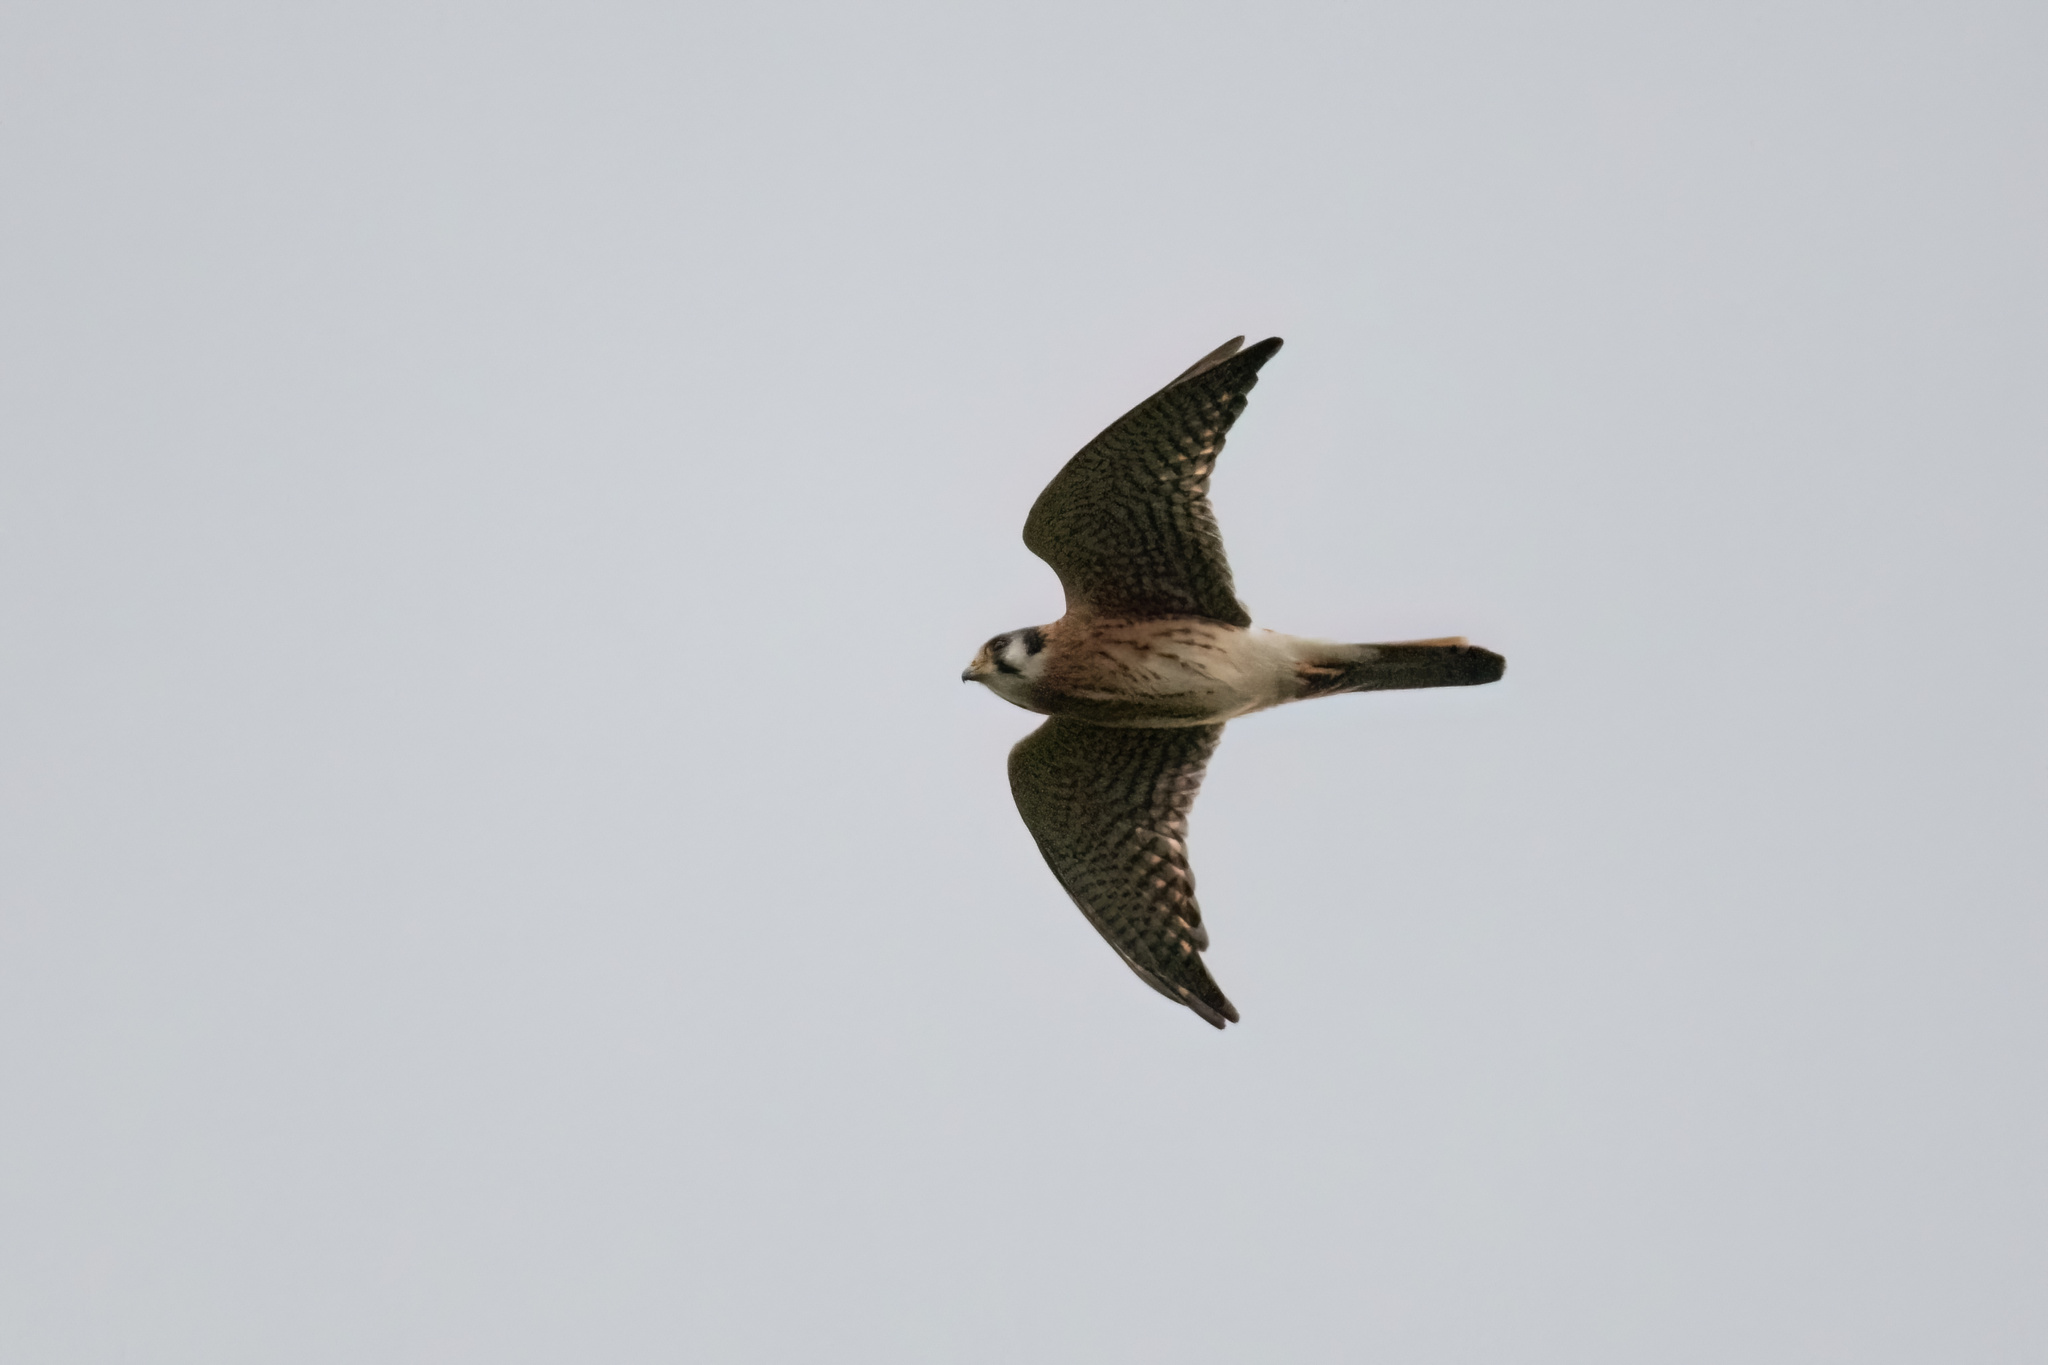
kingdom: Animalia
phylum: Chordata
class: Aves
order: Falconiformes
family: Falconidae
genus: Falco
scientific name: Falco sparverius
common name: American kestrel
